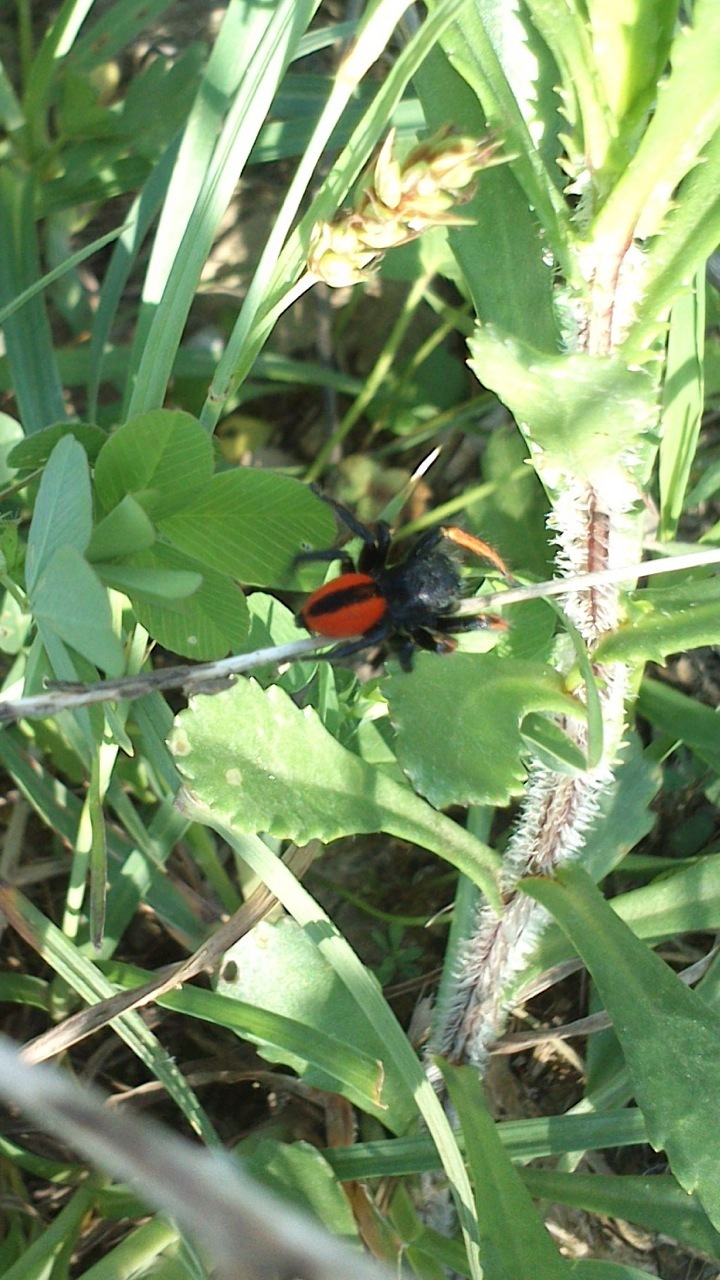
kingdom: Animalia
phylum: Arthropoda
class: Arachnida
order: Araneae
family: Salticidae
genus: Philaeus
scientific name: Philaeus chrysops
